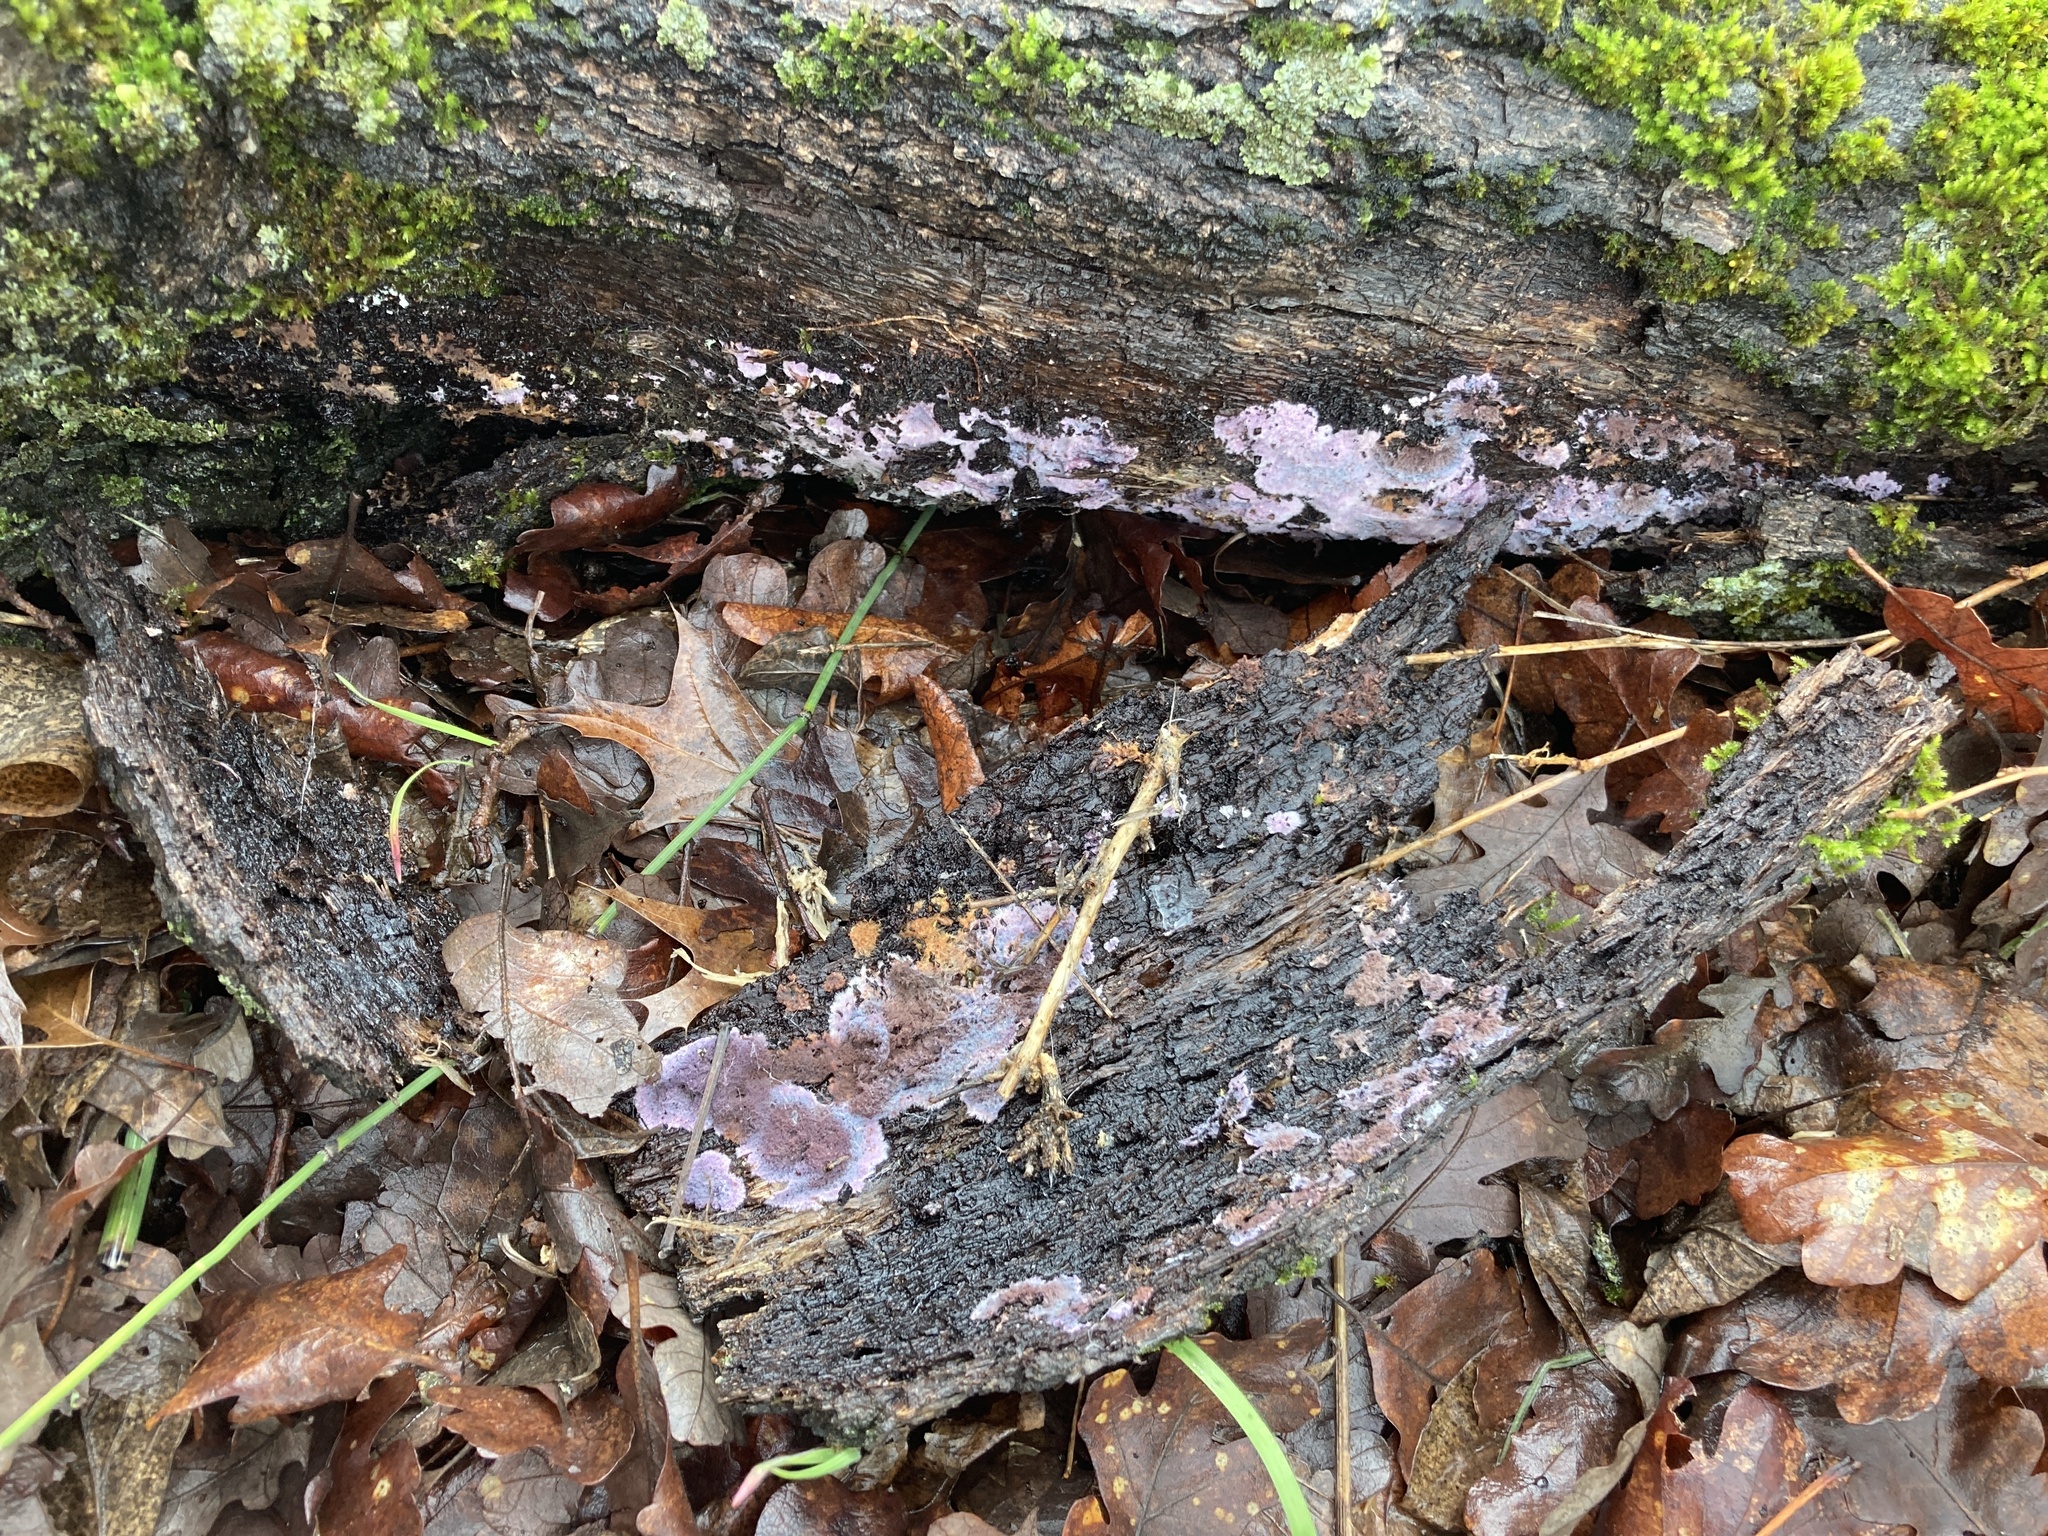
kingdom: Fungi
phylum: Basidiomycota
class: Agaricomycetes
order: Corticiales
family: Punctulariaceae
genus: Punctularia
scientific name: Punctularia atropurpurascens
